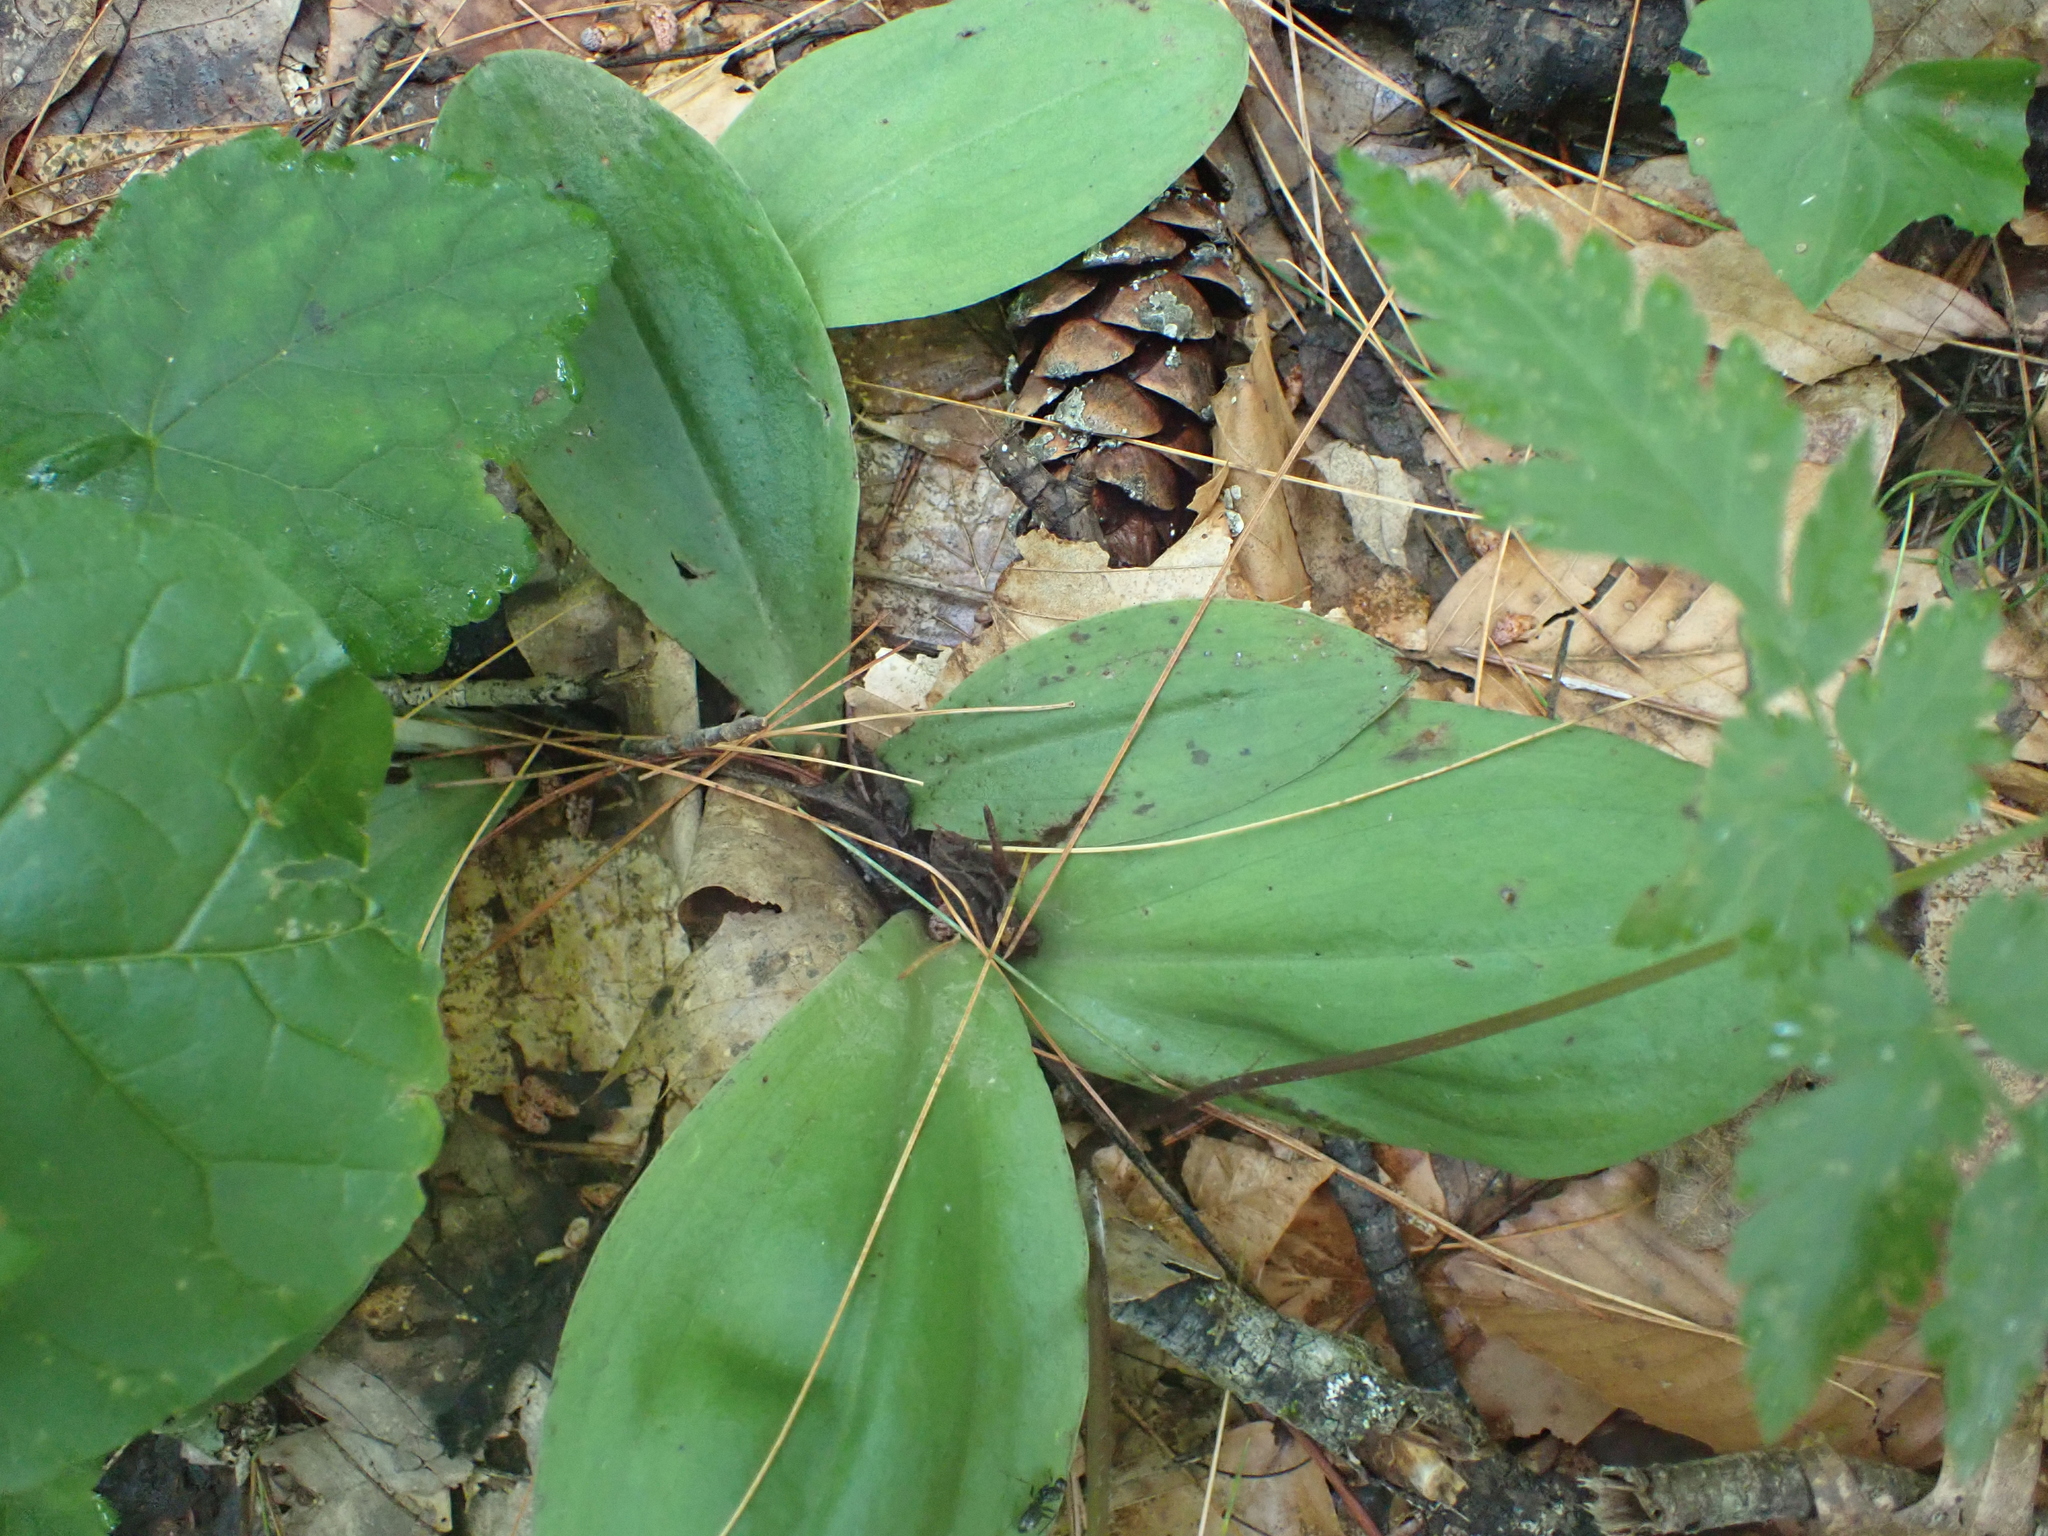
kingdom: Plantae
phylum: Tracheophyta
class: Liliopsida
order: Asparagales
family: Orchidaceae
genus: Galearis
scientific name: Galearis spectabilis
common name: Purple-hooded orchis
